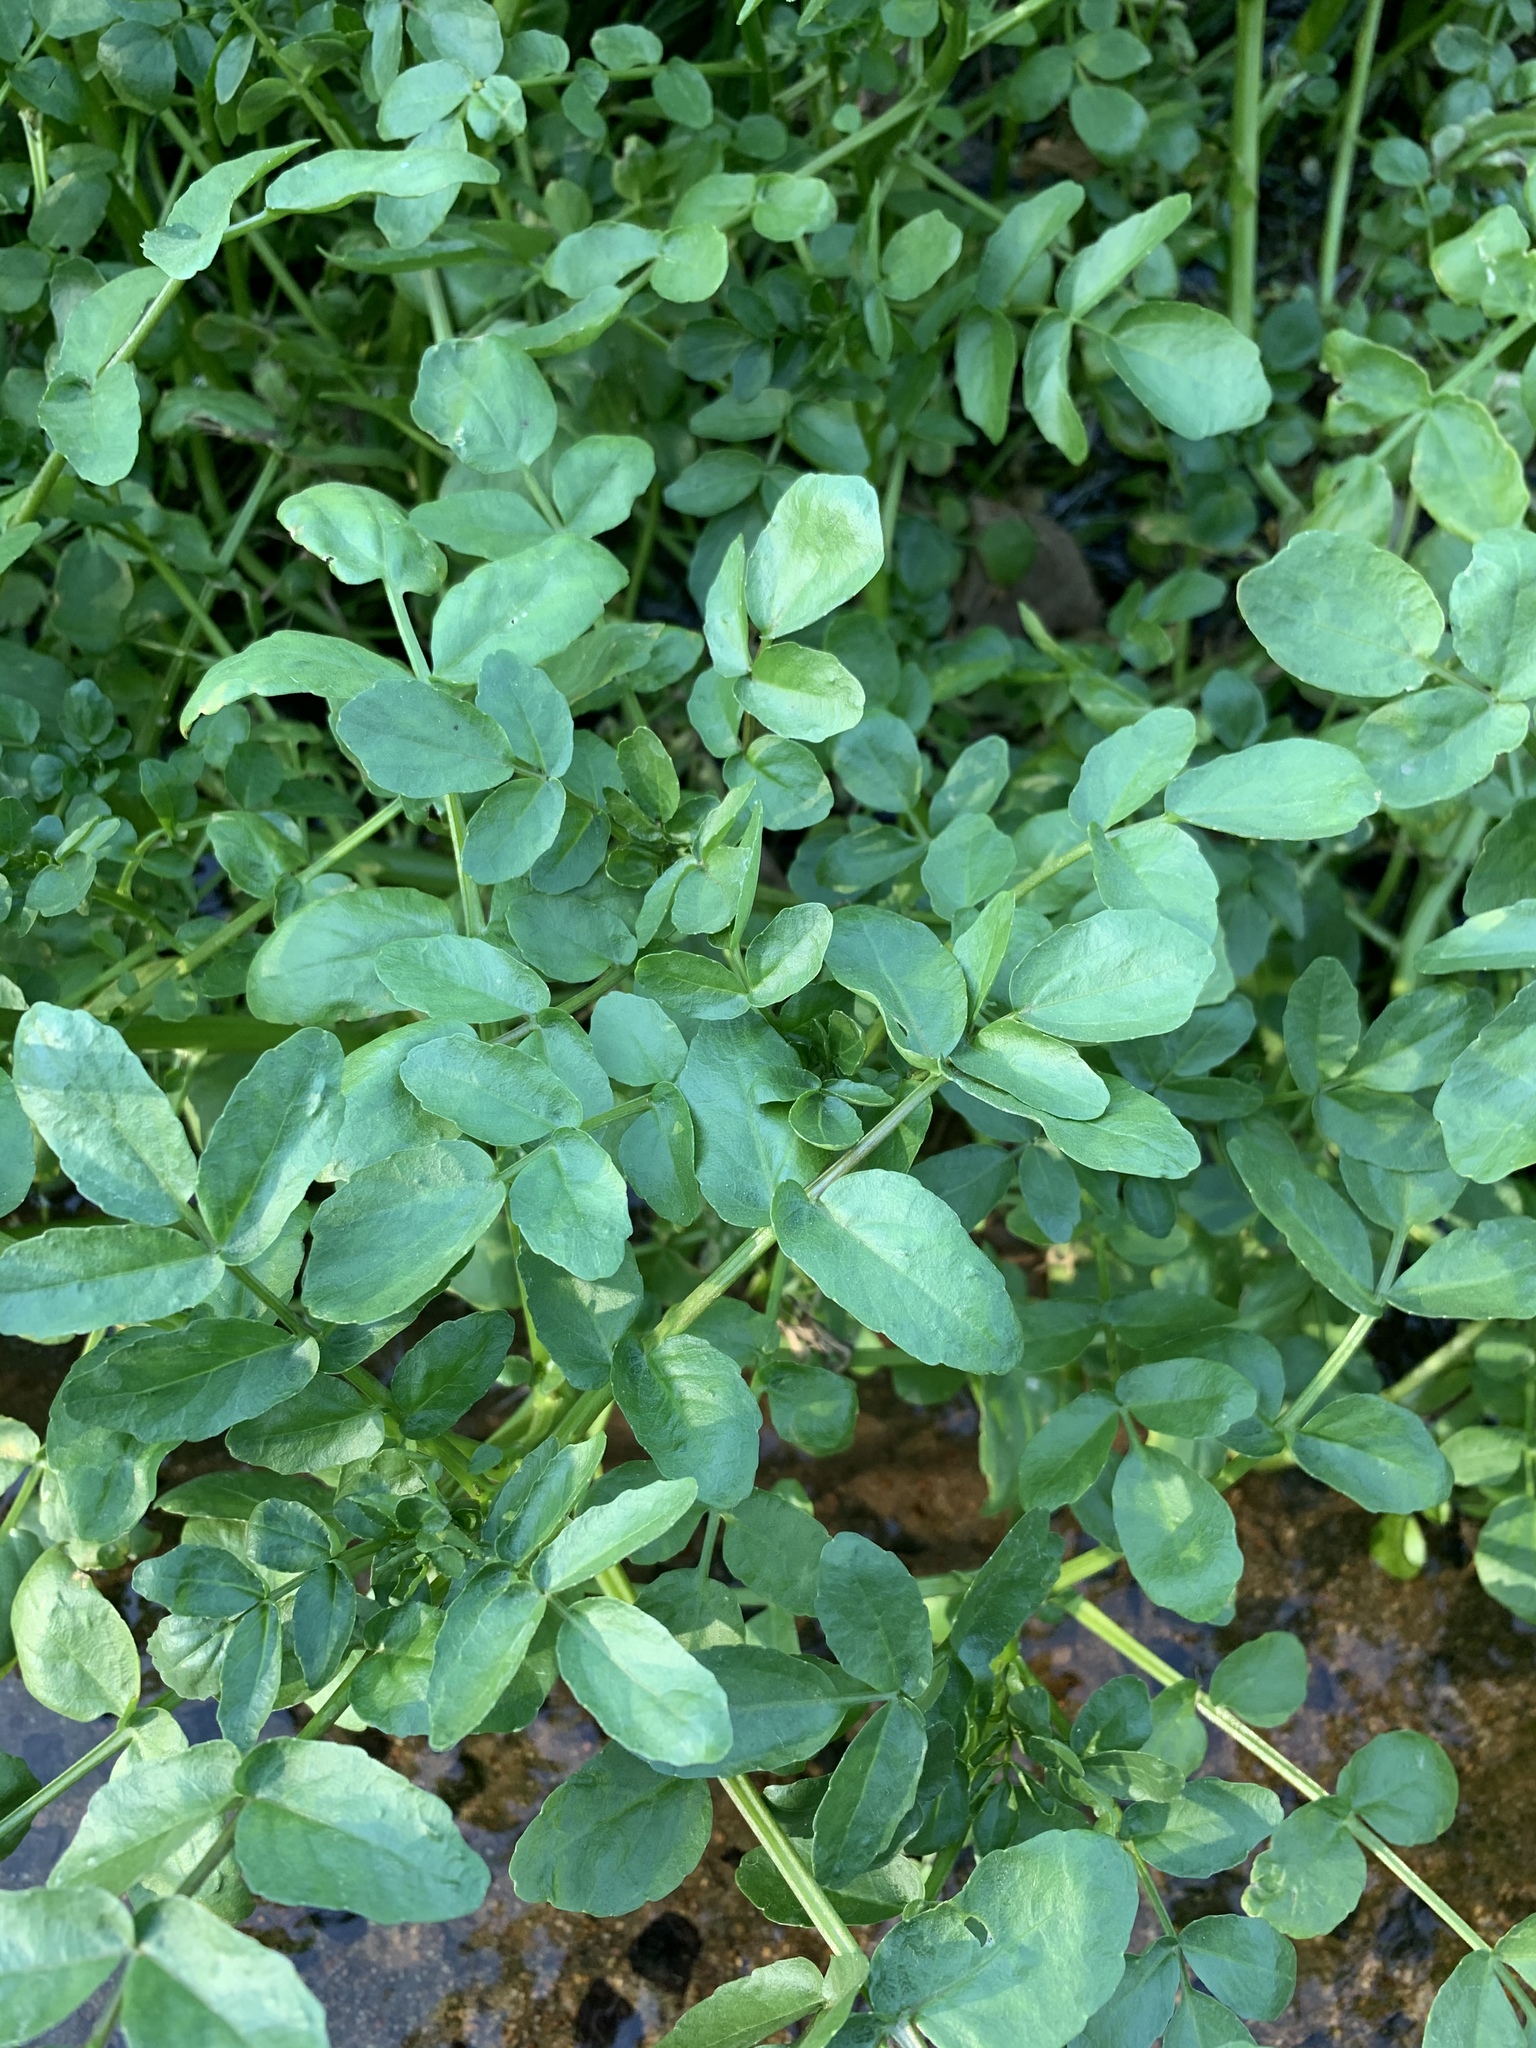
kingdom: Plantae
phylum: Tracheophyta
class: Magnoliopsida
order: Brassicales
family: Brassicaceae
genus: Nasturtium
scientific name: Nasturtium officinale
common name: Watercress
